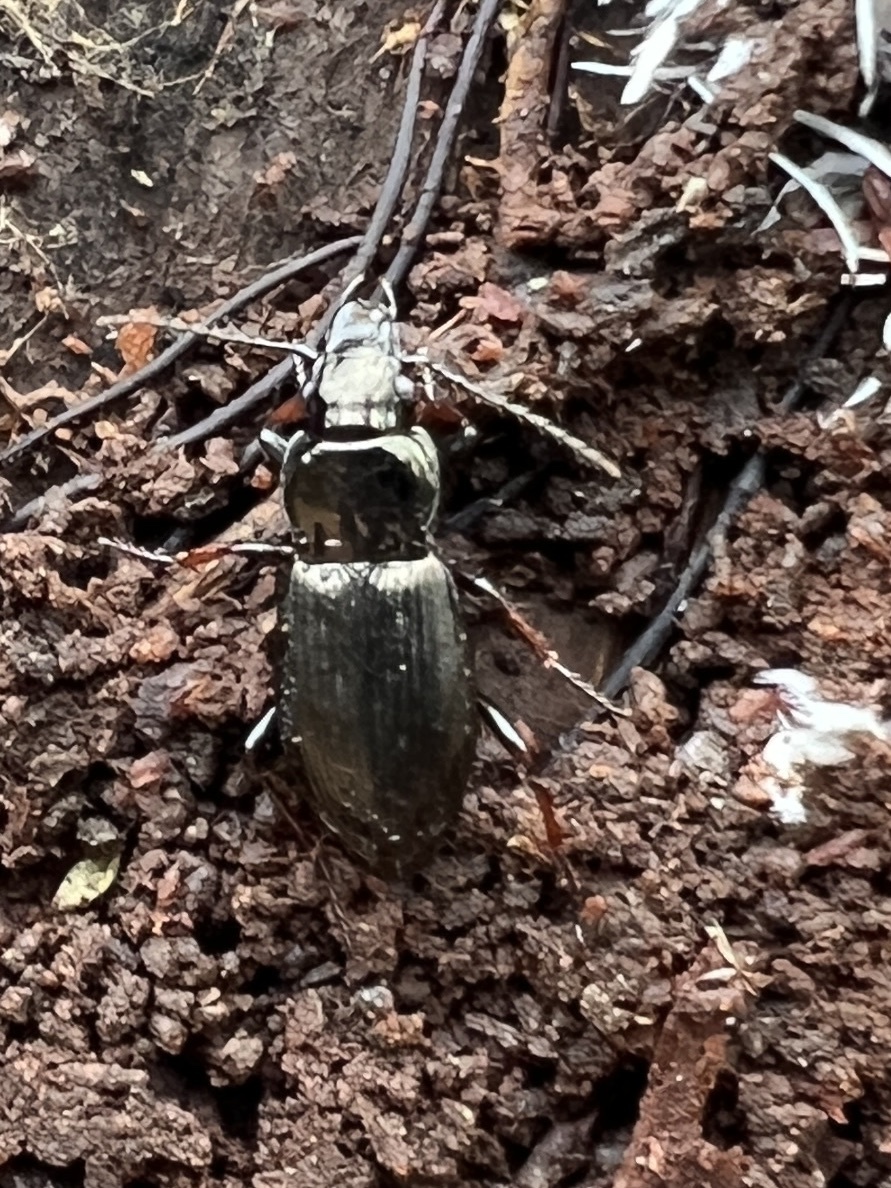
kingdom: Animalia
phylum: Arthropoda
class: Insecta
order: Coleoptera
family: Carabidae
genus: Pterostichus
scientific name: Pterostichus oblongopunctatus
